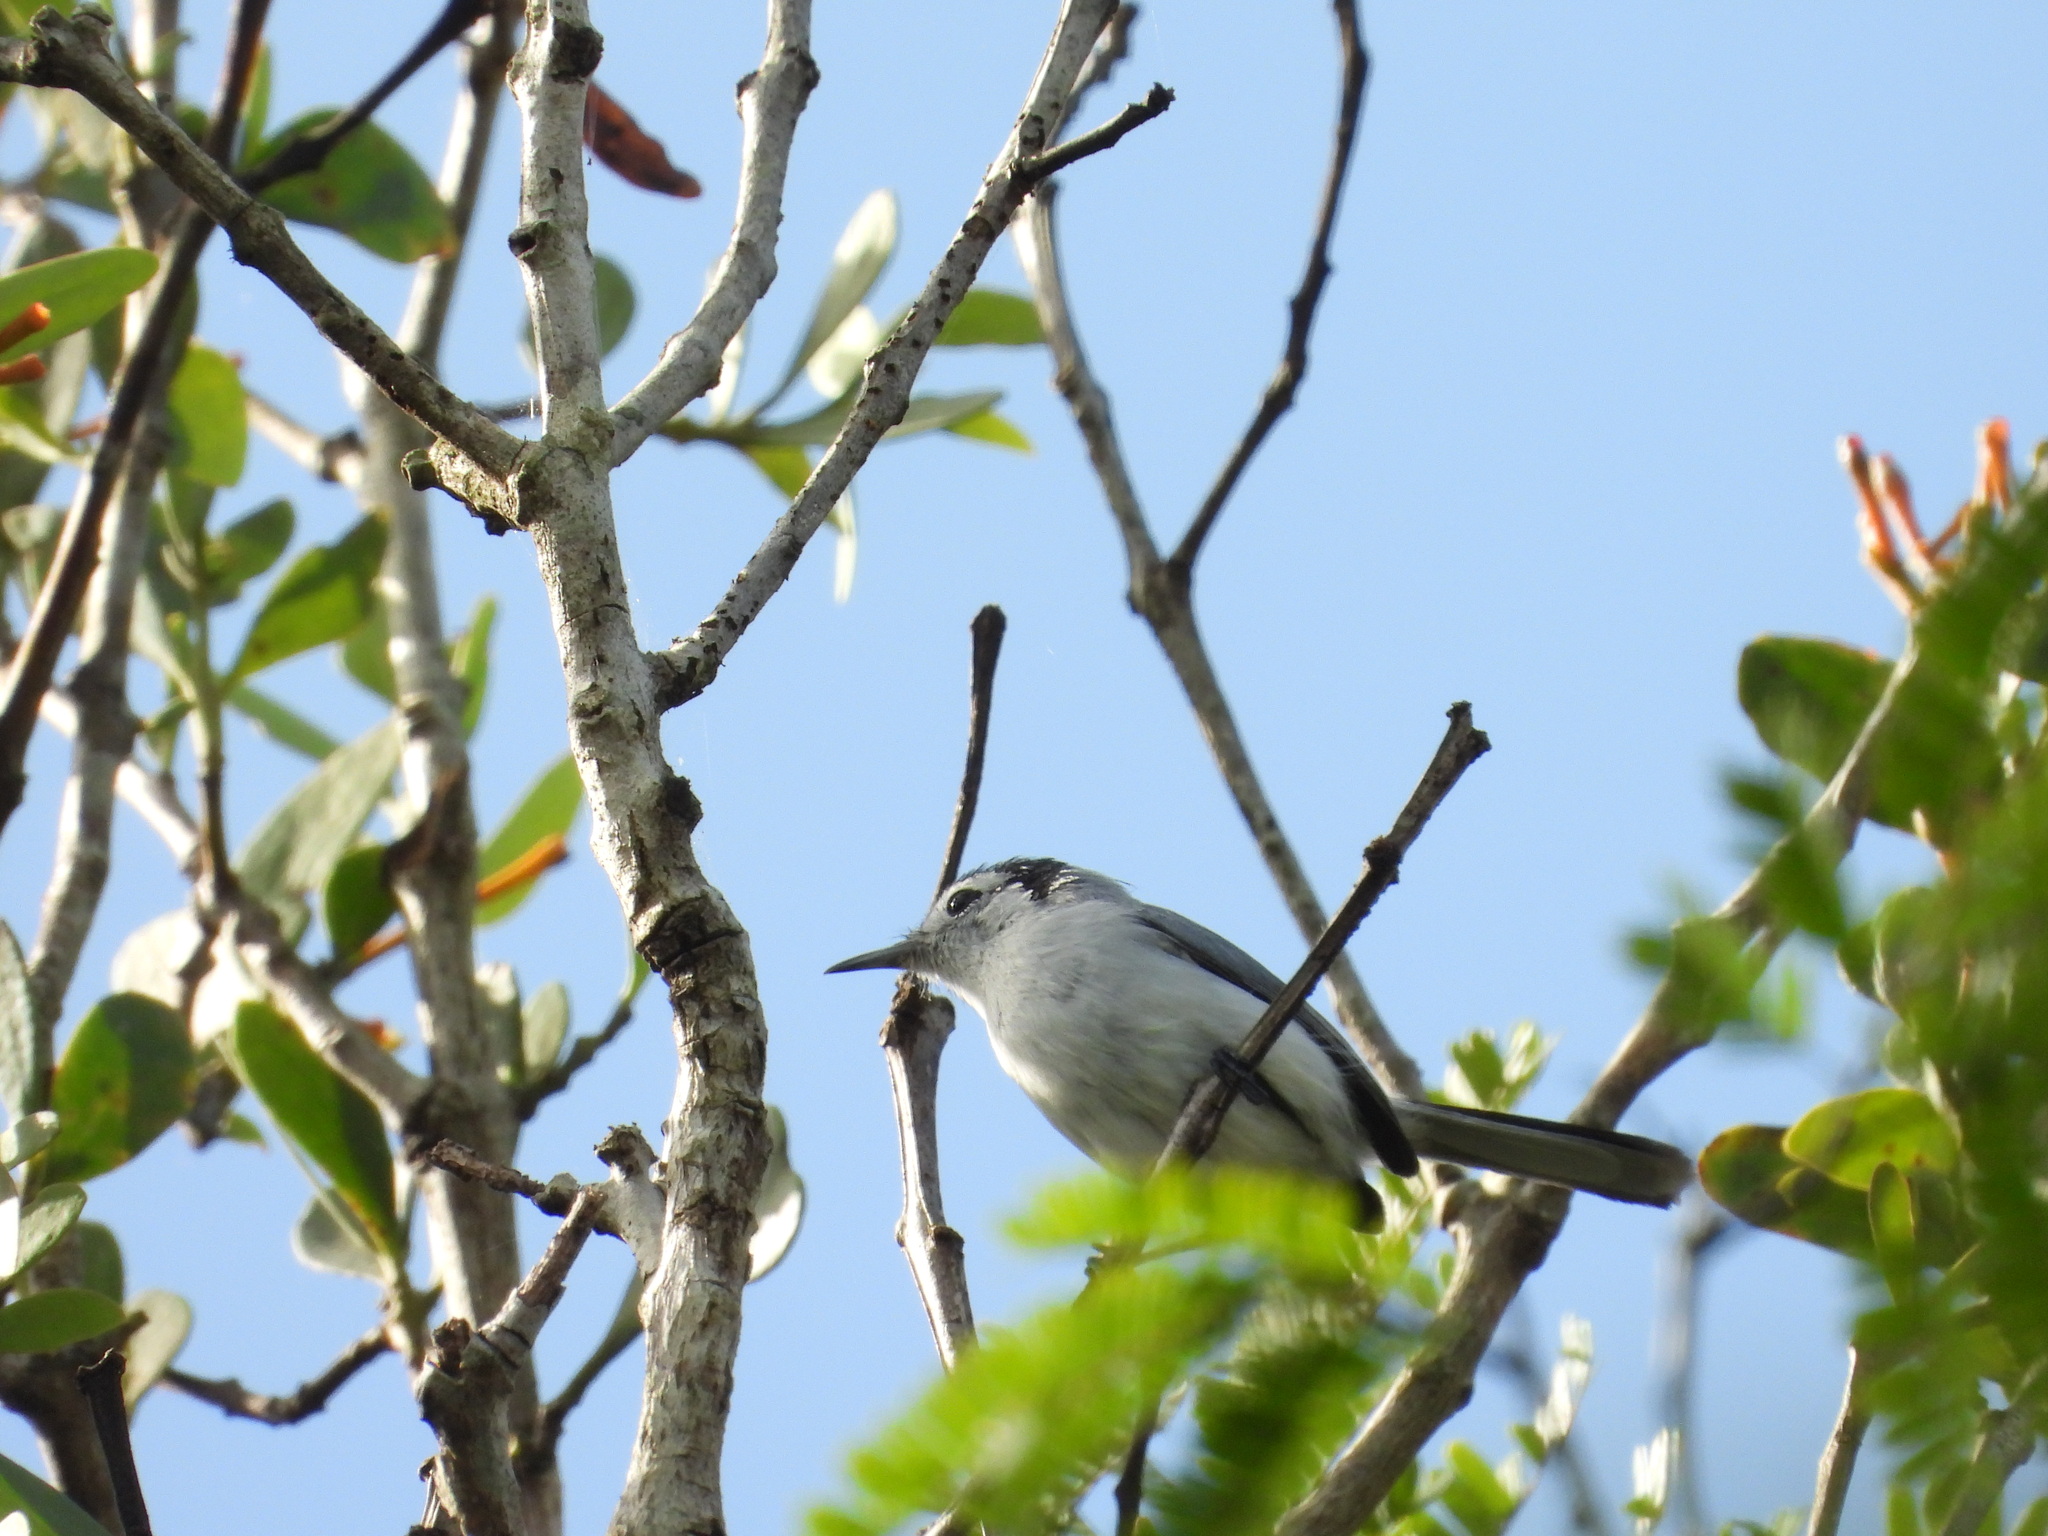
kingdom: Animalia
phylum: Chordata
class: Aves
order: Passeriformes
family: Polioptilidae
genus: Polioptila
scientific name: Polioptila plumbea
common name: Tropical gnatcatcher
